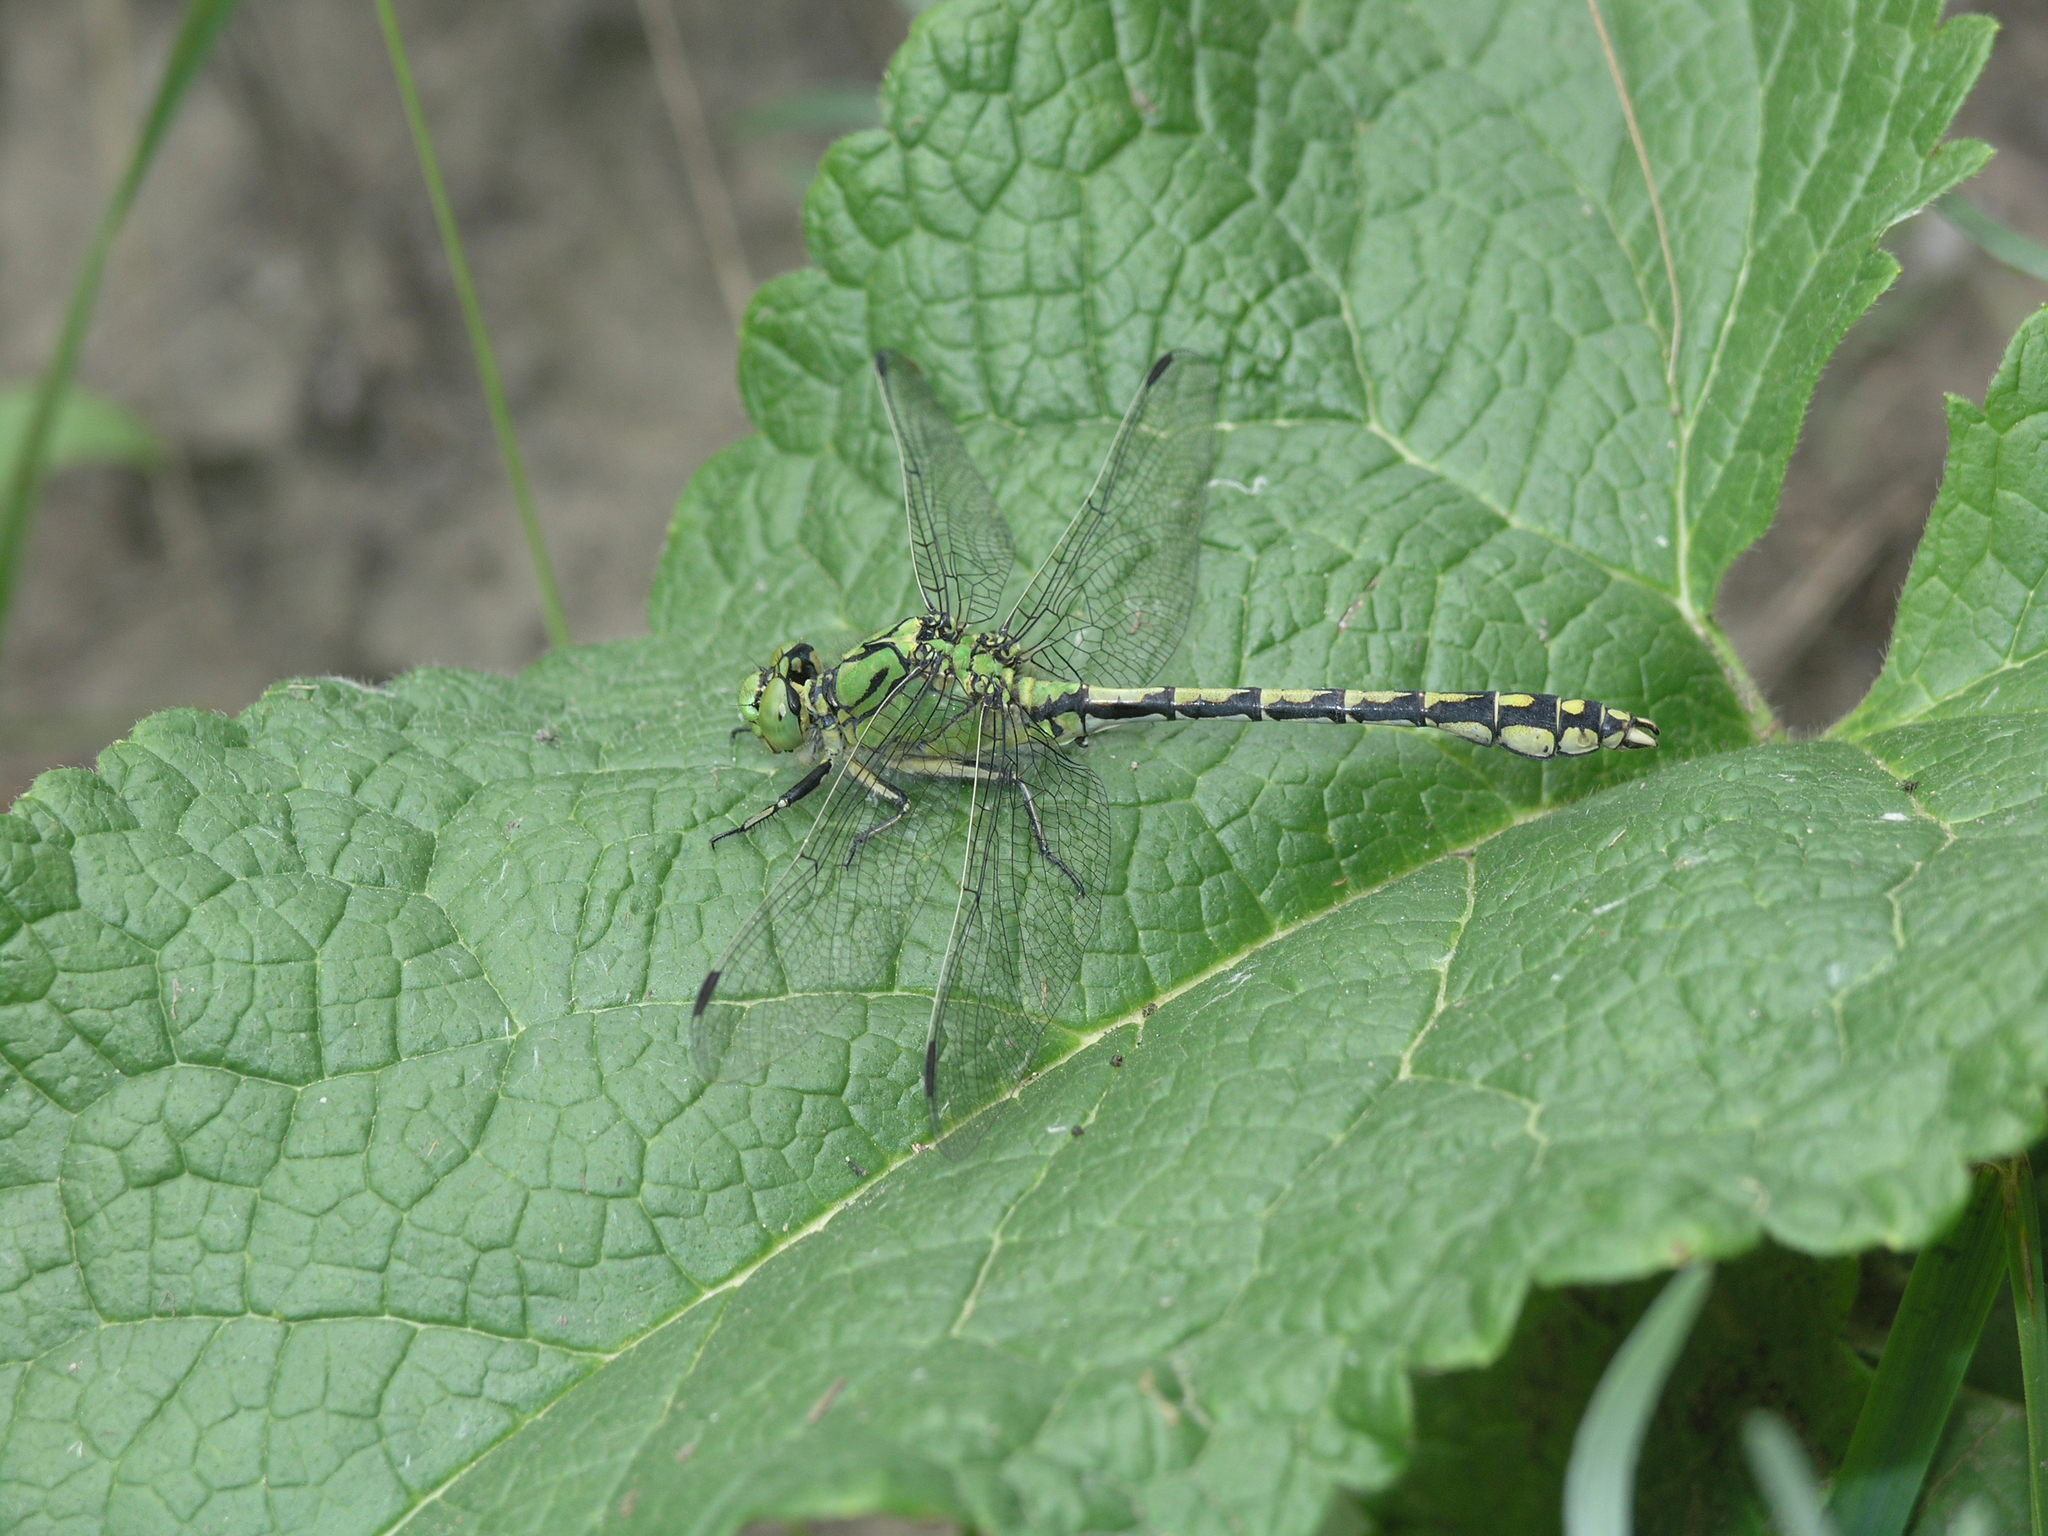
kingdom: Animalia
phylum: Arthropoda
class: Insecta
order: Odonata
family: Gomphidae
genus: Ophiogomphus
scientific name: Ophiogomphus cecilia
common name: Green snaketail
